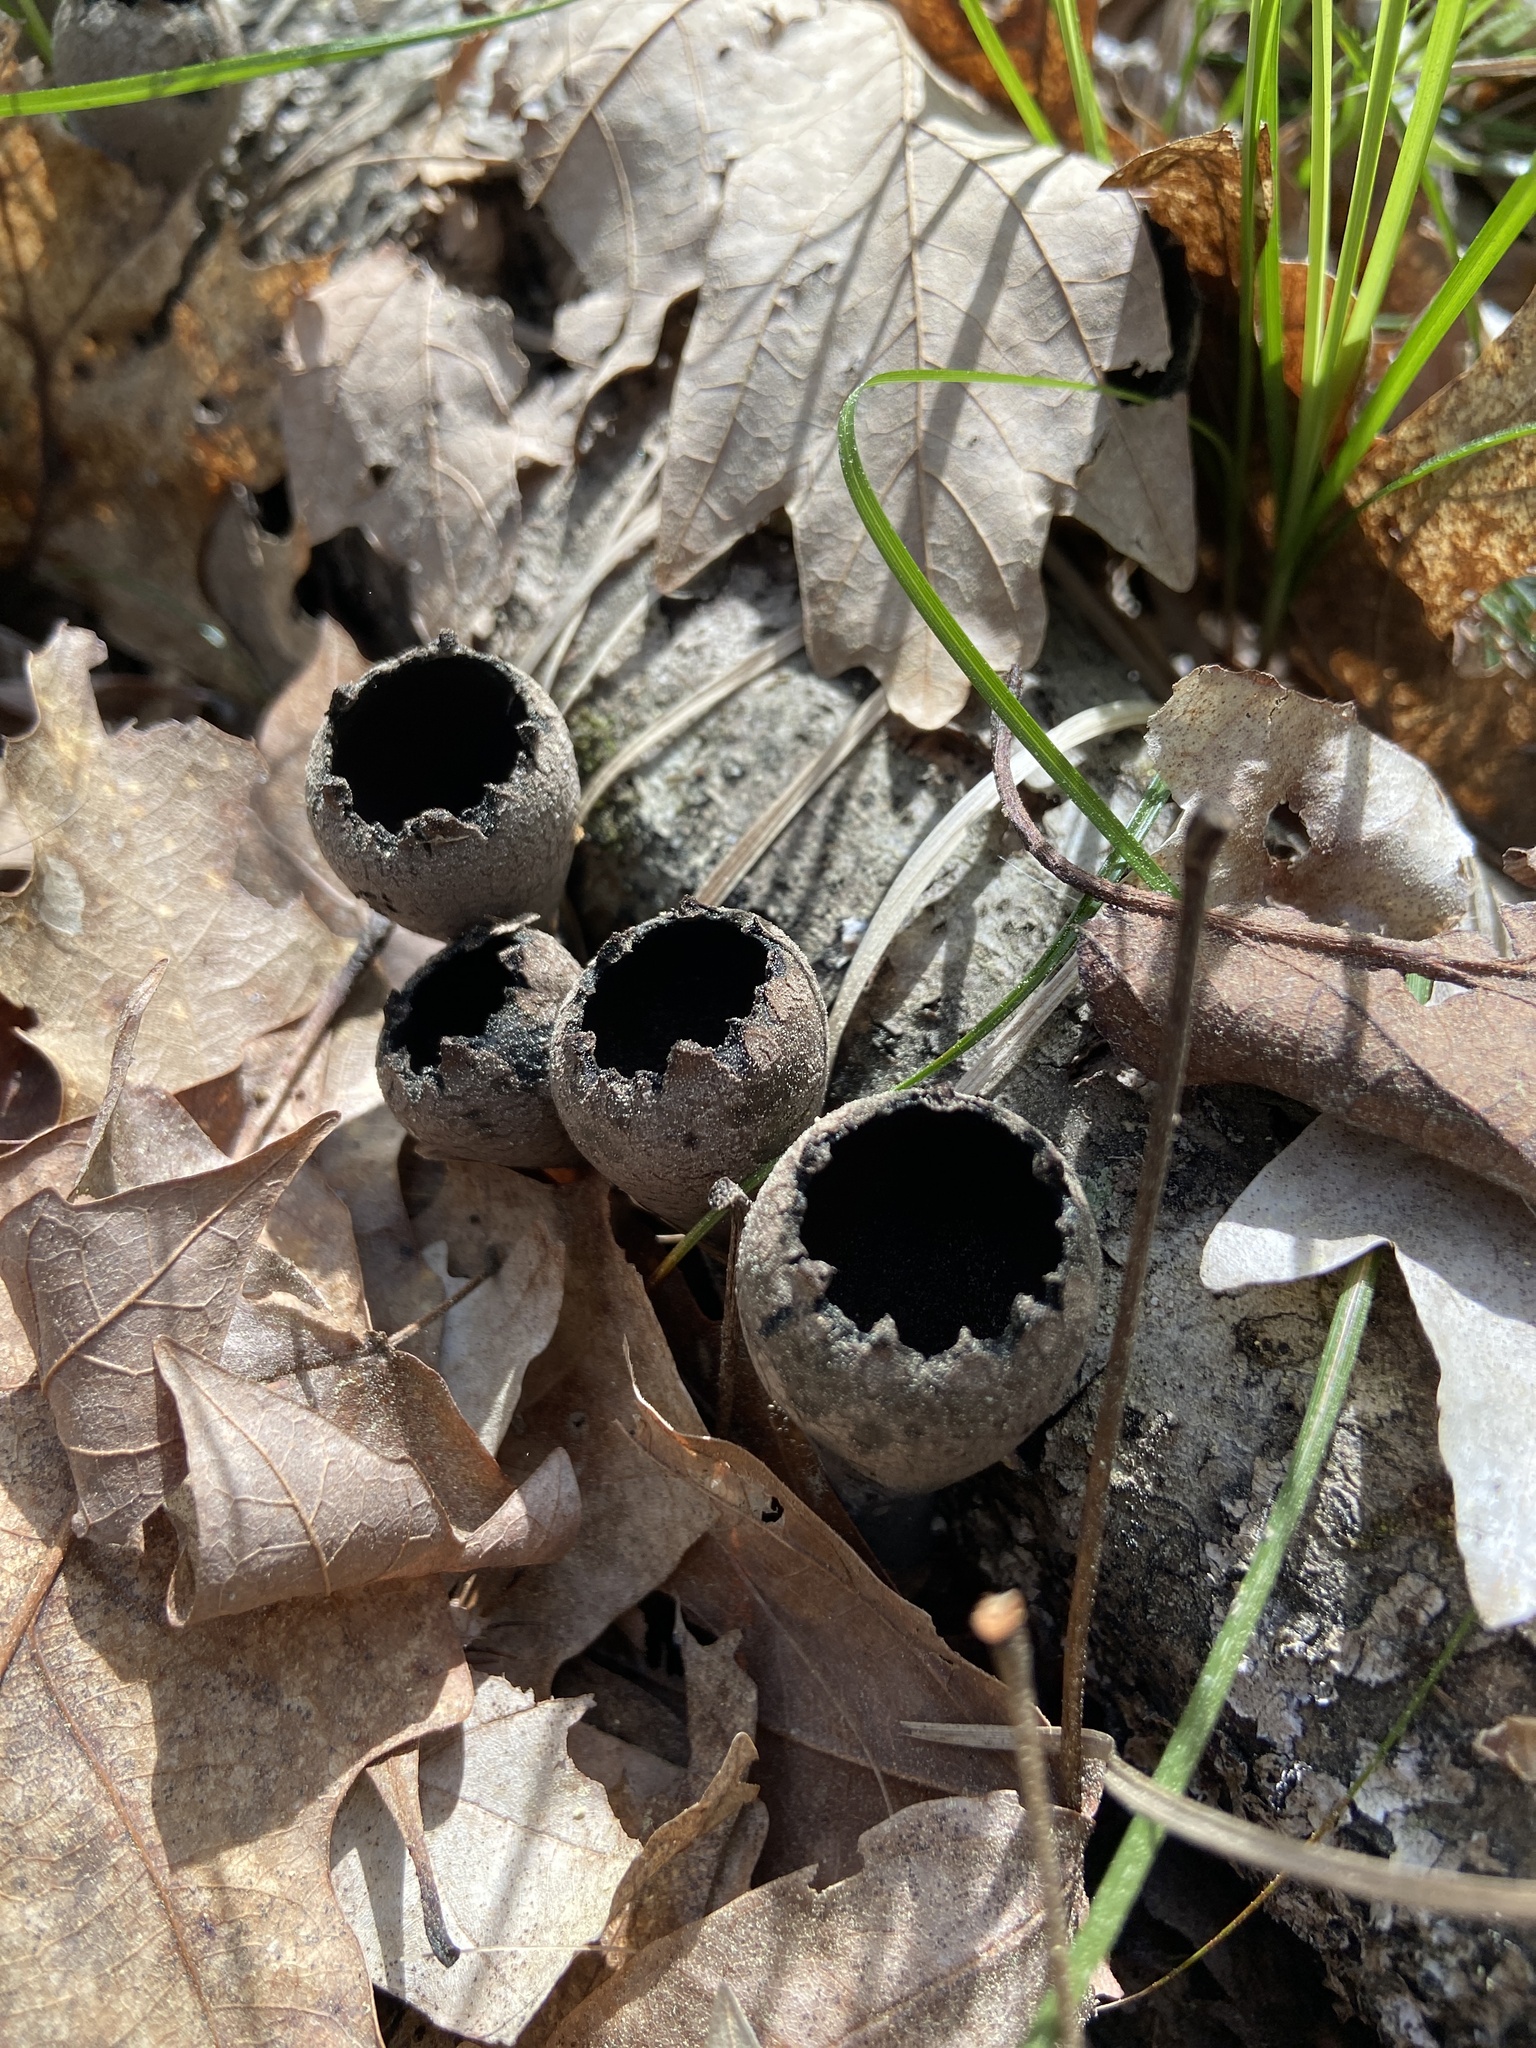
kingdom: Fungi
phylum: Ascomycota
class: Pezizomycetes
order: Pezizales
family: Sarcosomataceae
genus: Urnula
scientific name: Urnula craterium
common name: Devil's urn
